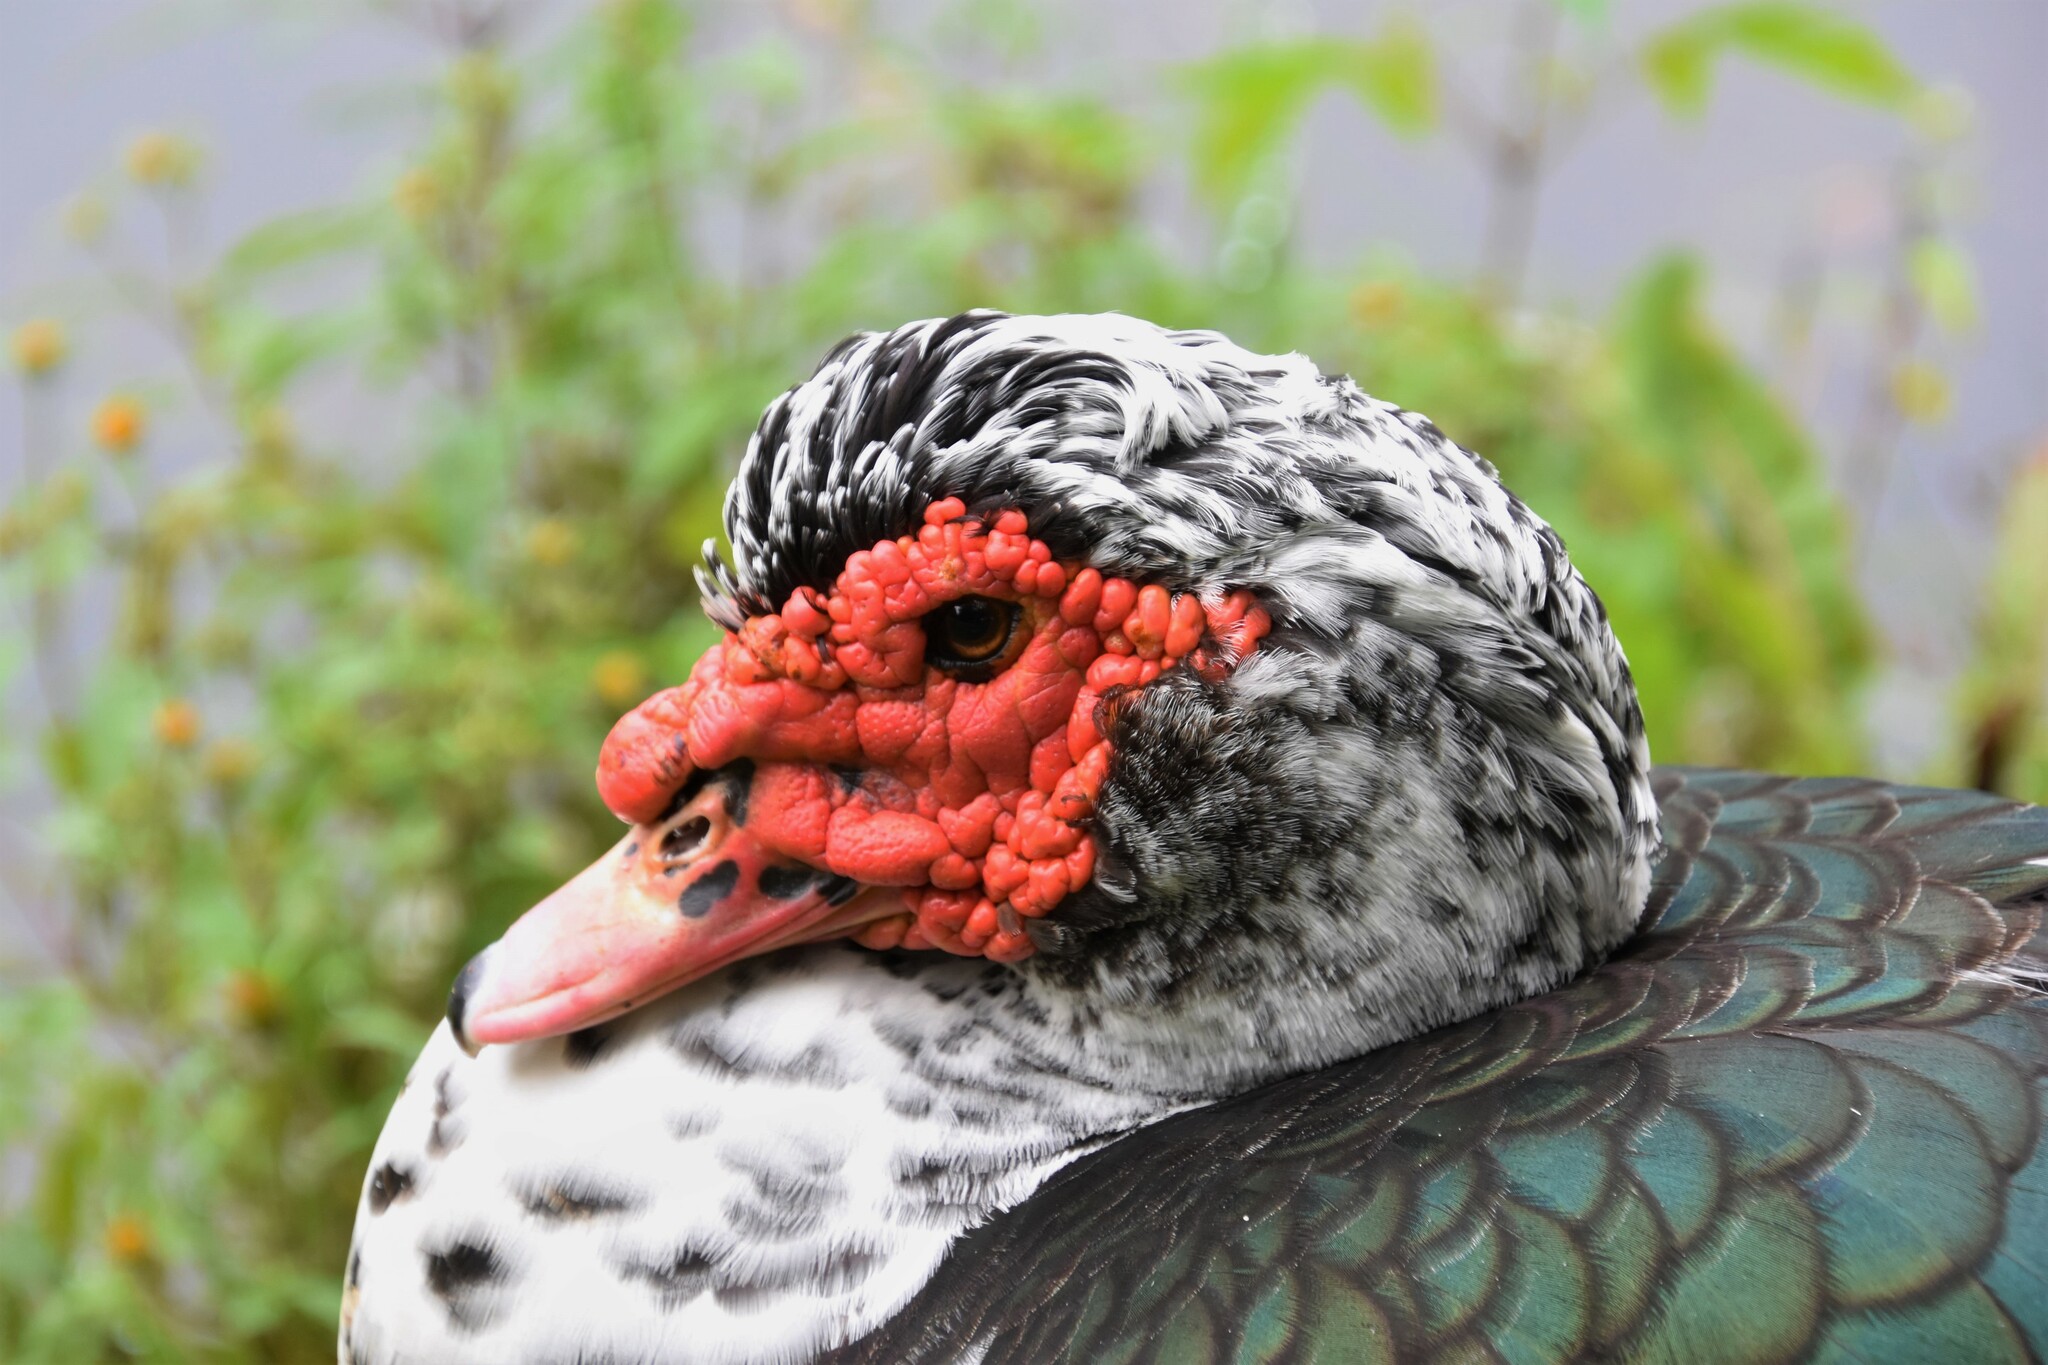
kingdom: Animalia
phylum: Chordata
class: Aves
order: Anseriformes
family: Anatidae
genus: Cairina
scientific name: Cairina moschata
